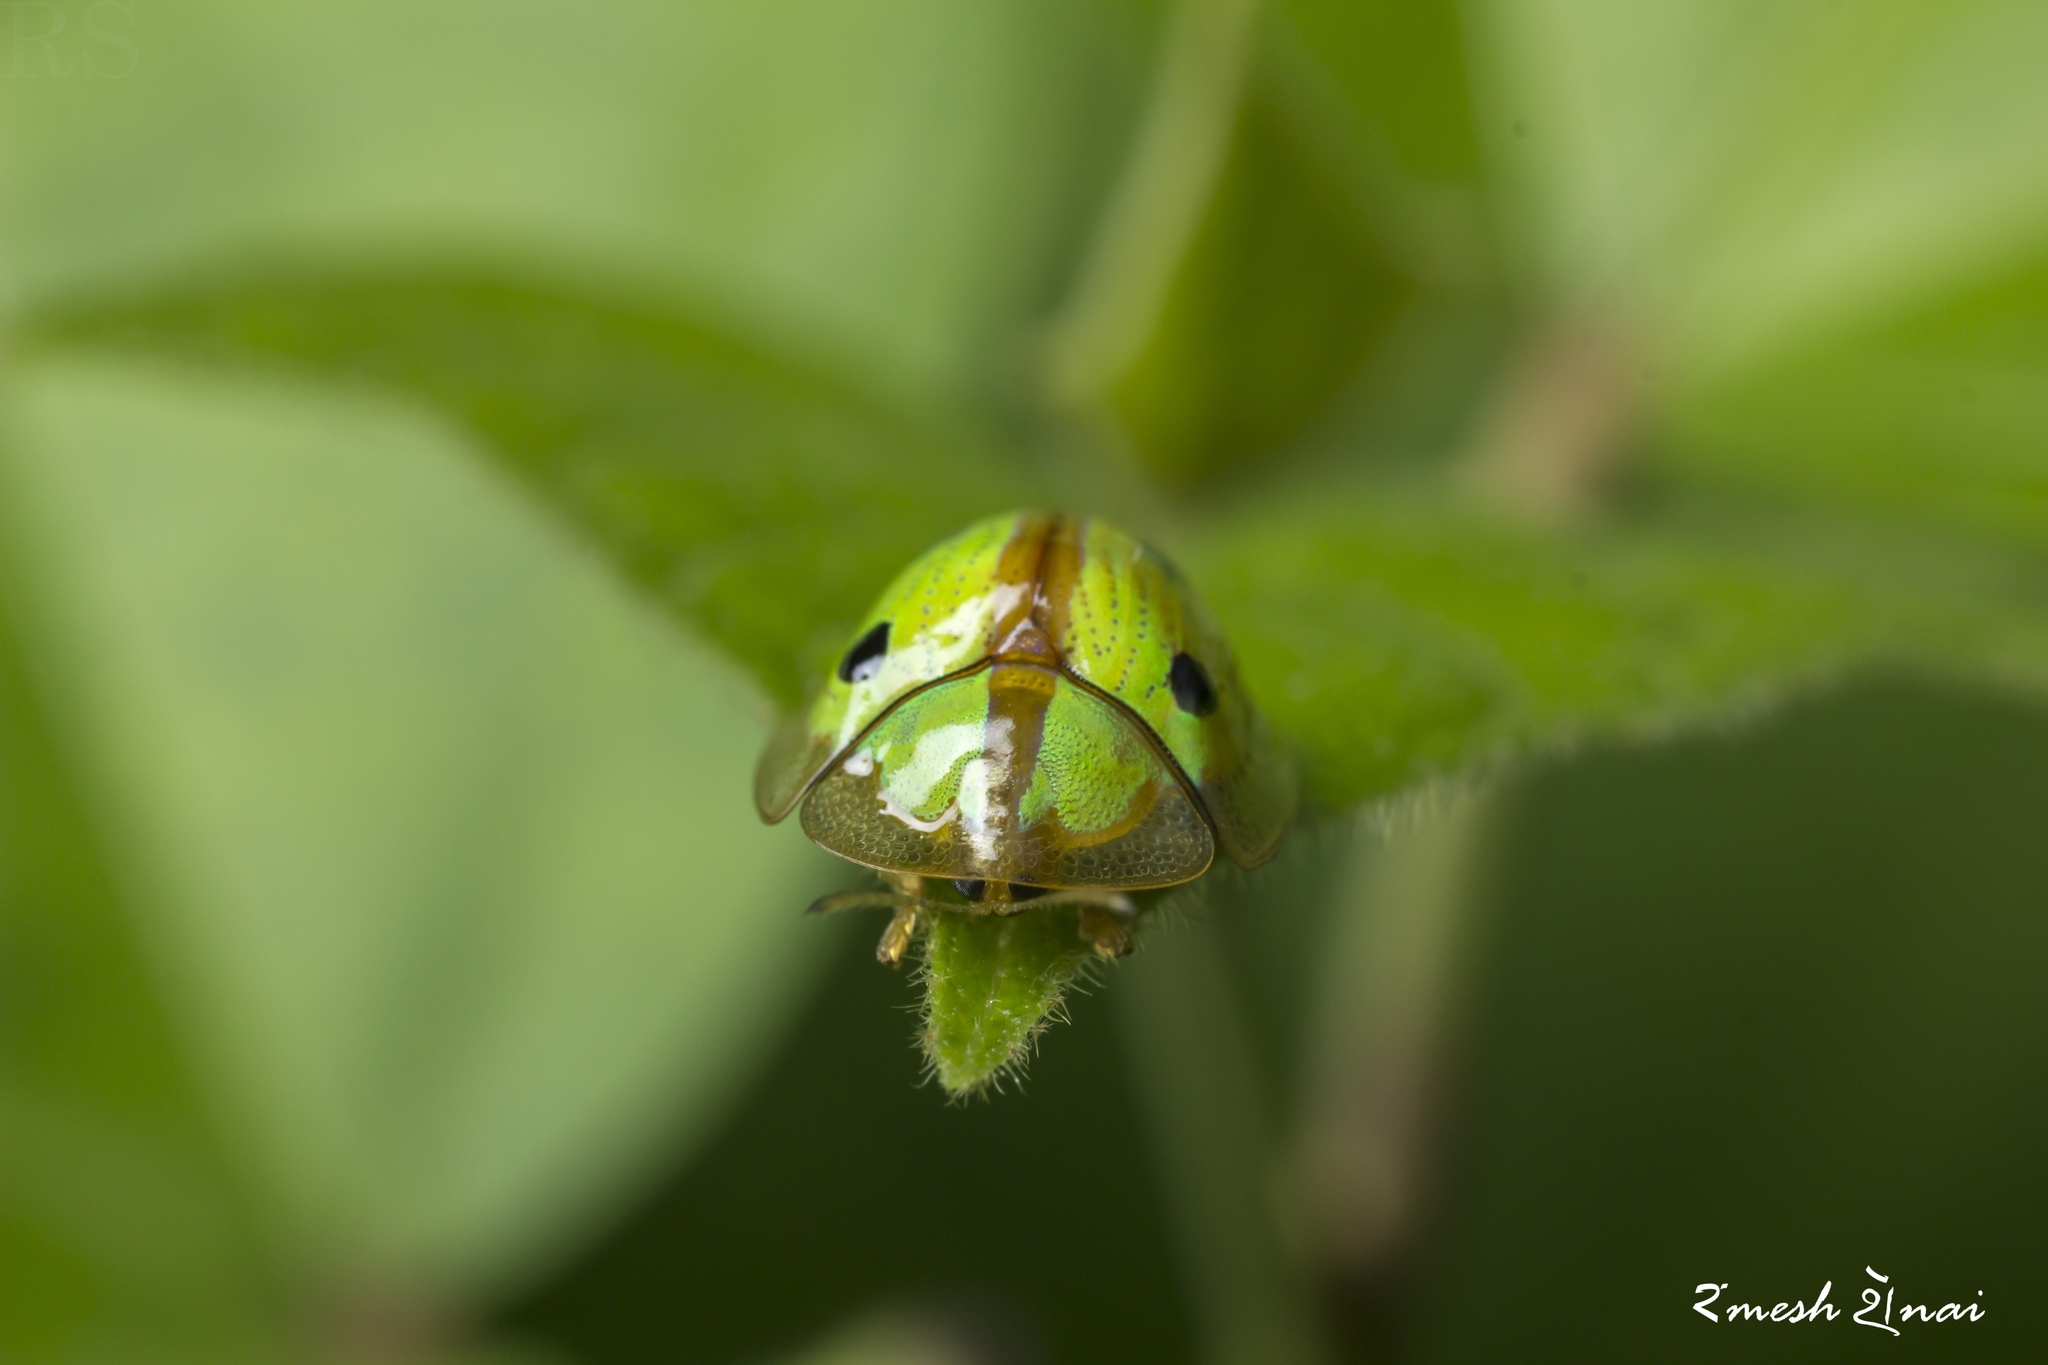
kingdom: Animalia
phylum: Arthropoda
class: Insecta
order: Coleoptera
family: Chrysomelidae
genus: Chiridopsis
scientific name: Chiridopsis bipunctata
